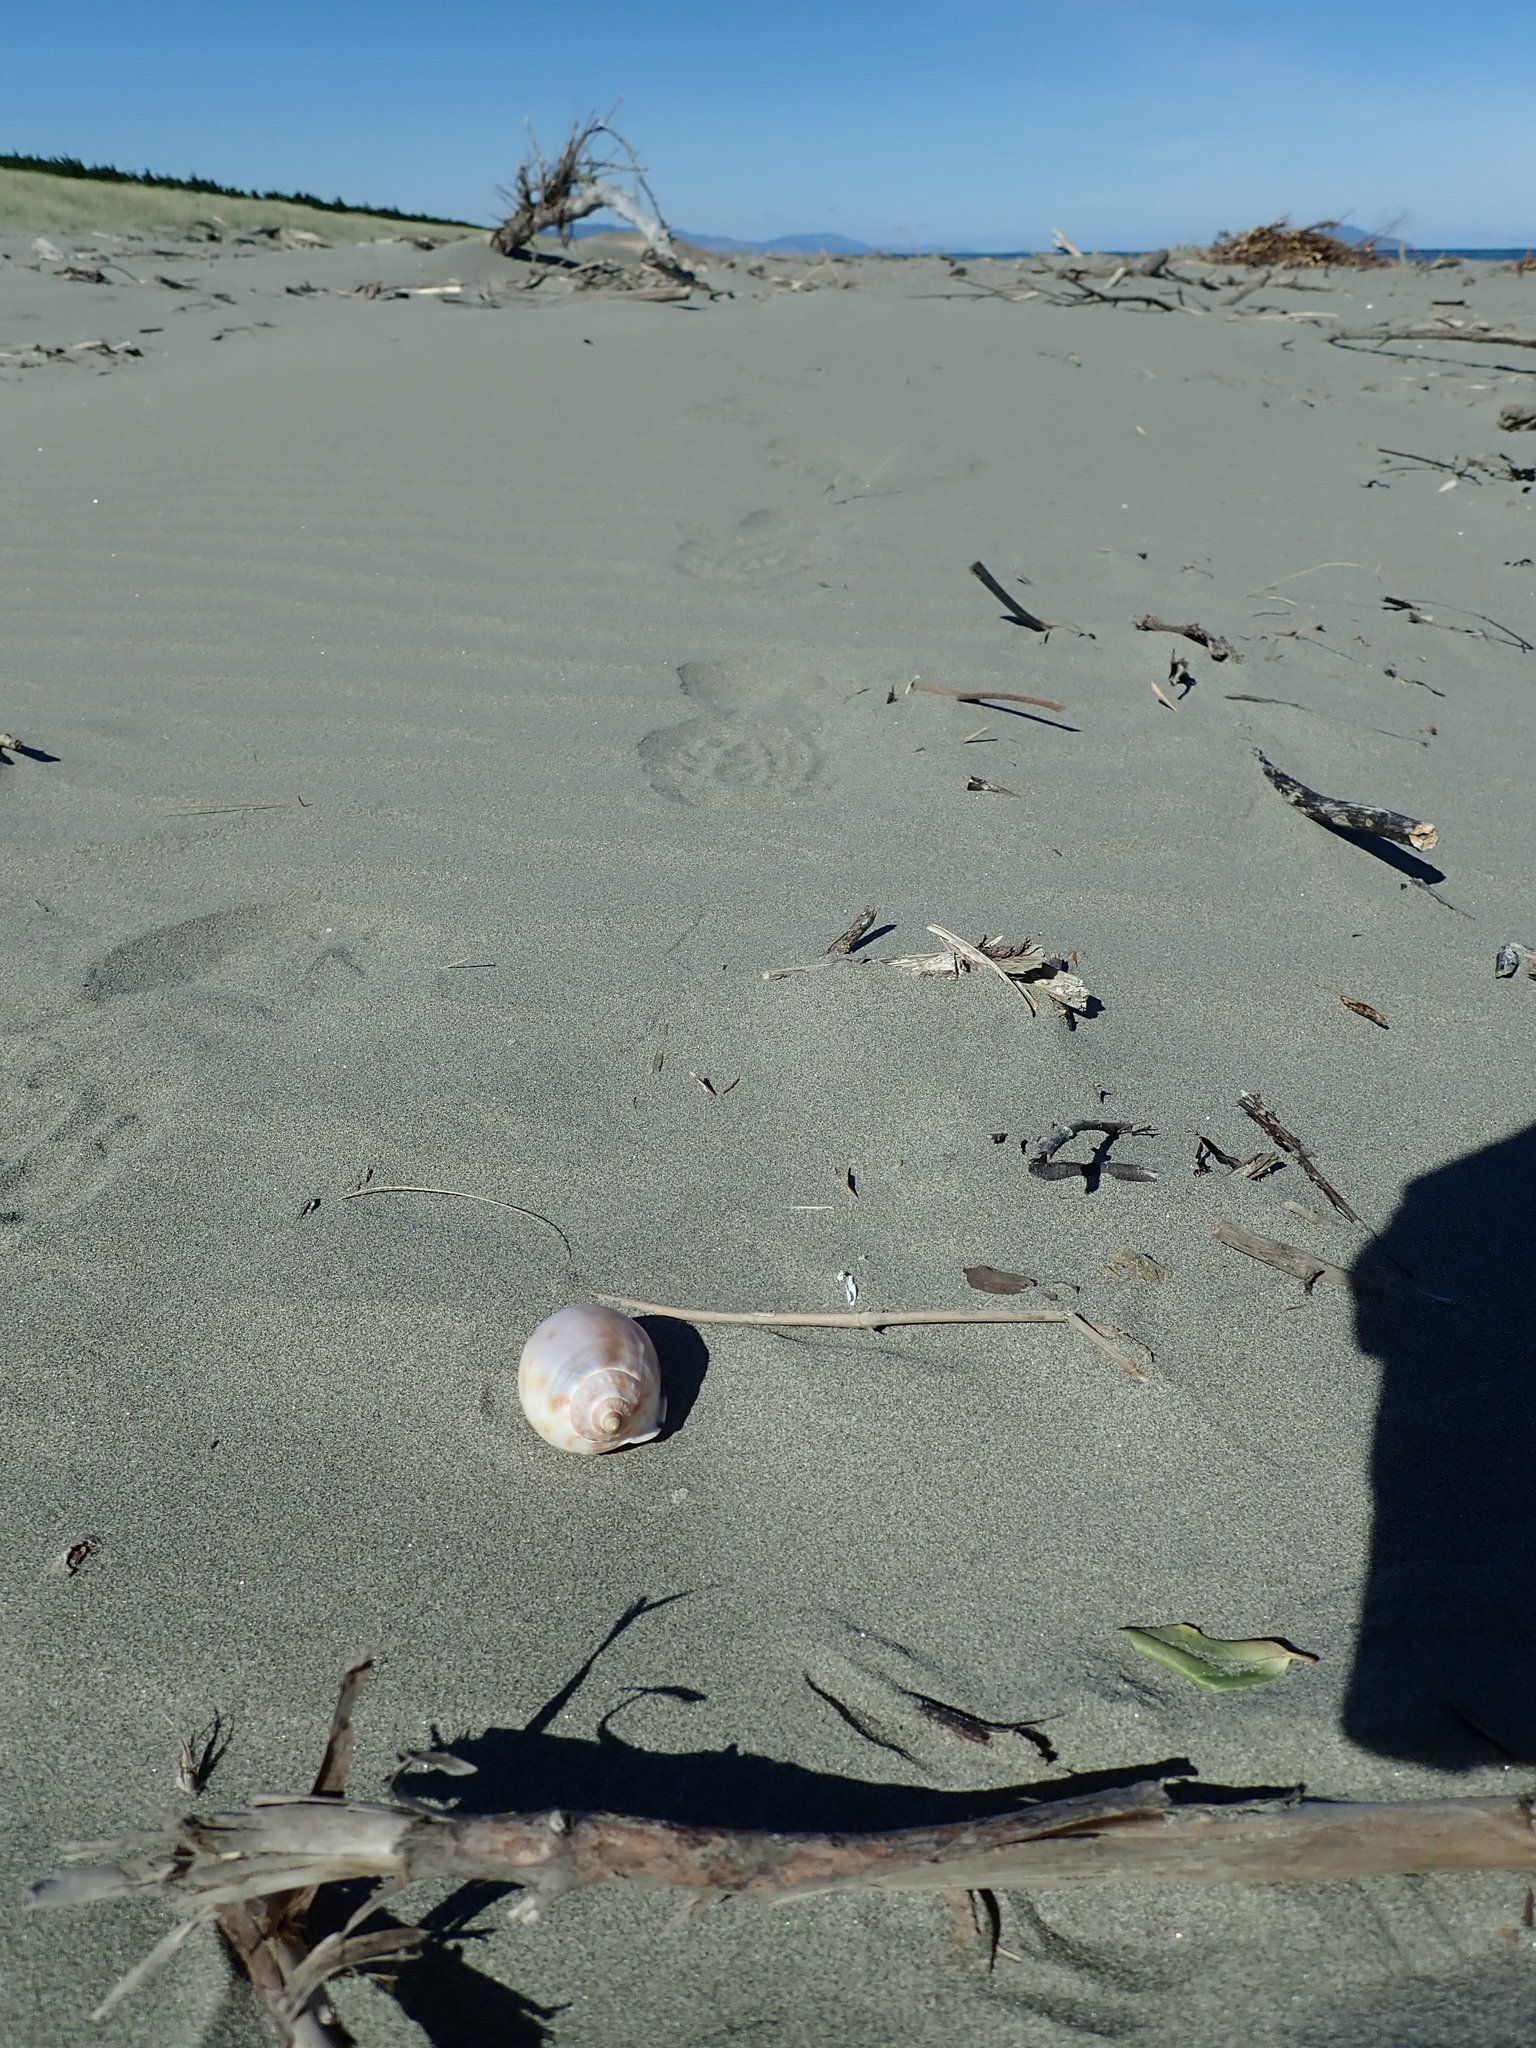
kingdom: Animalia
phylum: Mollusca
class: Gastropoda
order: Littorinimorpha
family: Cassidae
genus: Semicassis
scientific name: Semicassis pyrum
